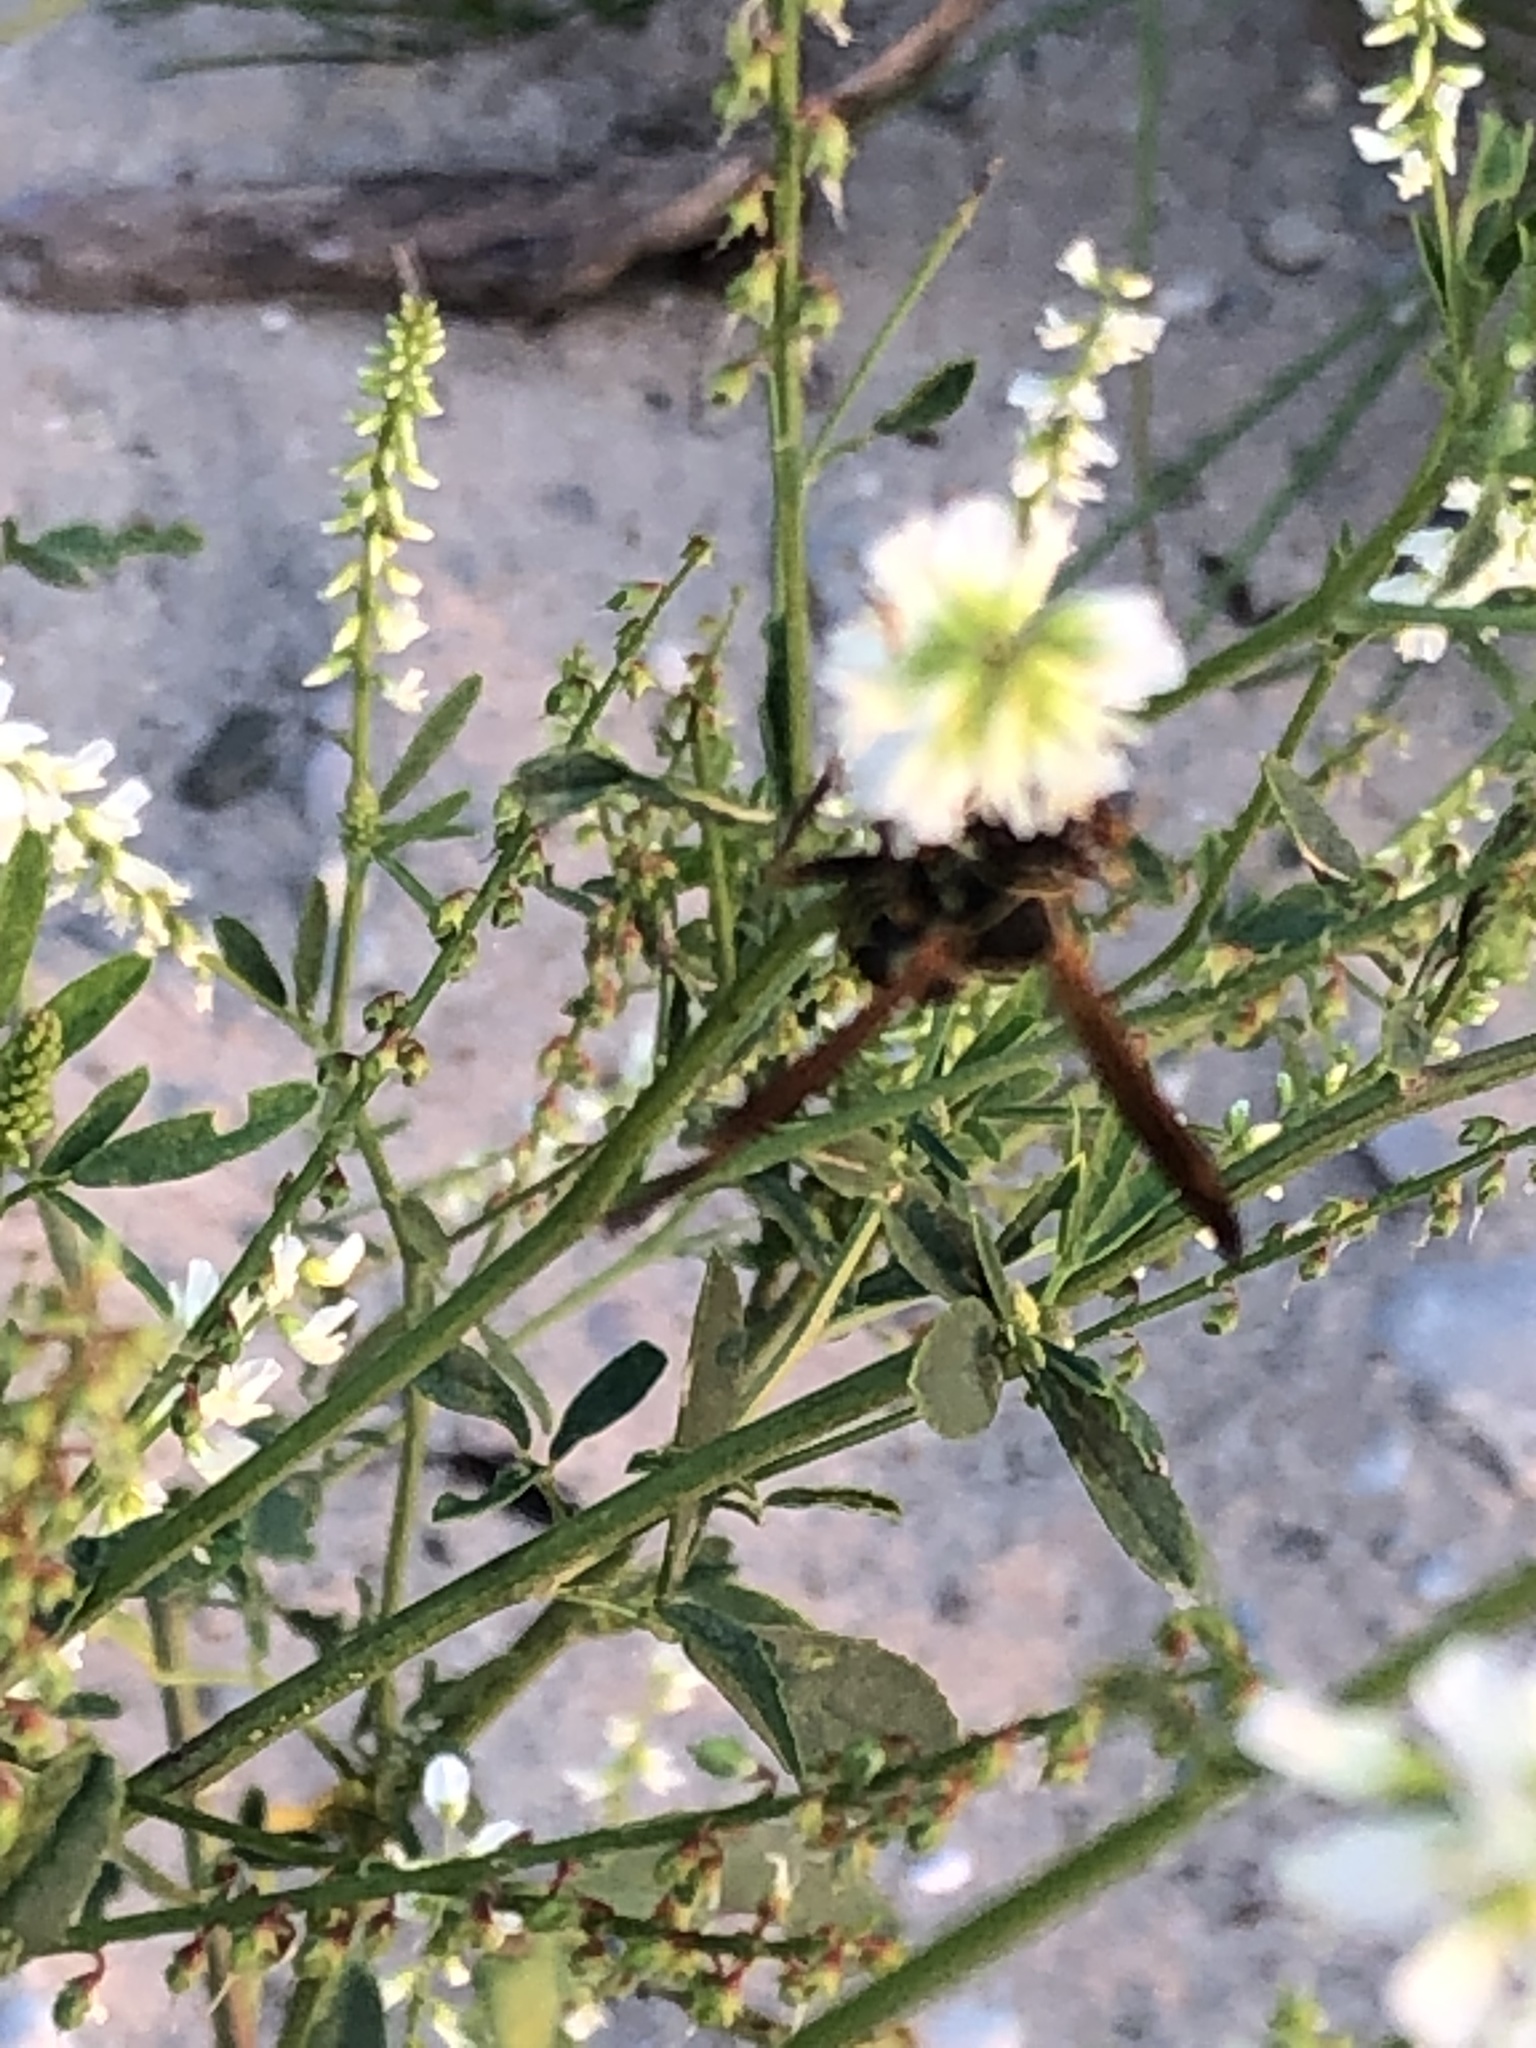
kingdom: Animalia
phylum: Arthropoda
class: Insecta
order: Hymenoptera
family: Eumenidae
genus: Polistes
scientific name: Polistes fuscatus
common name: Dark paper wasp
